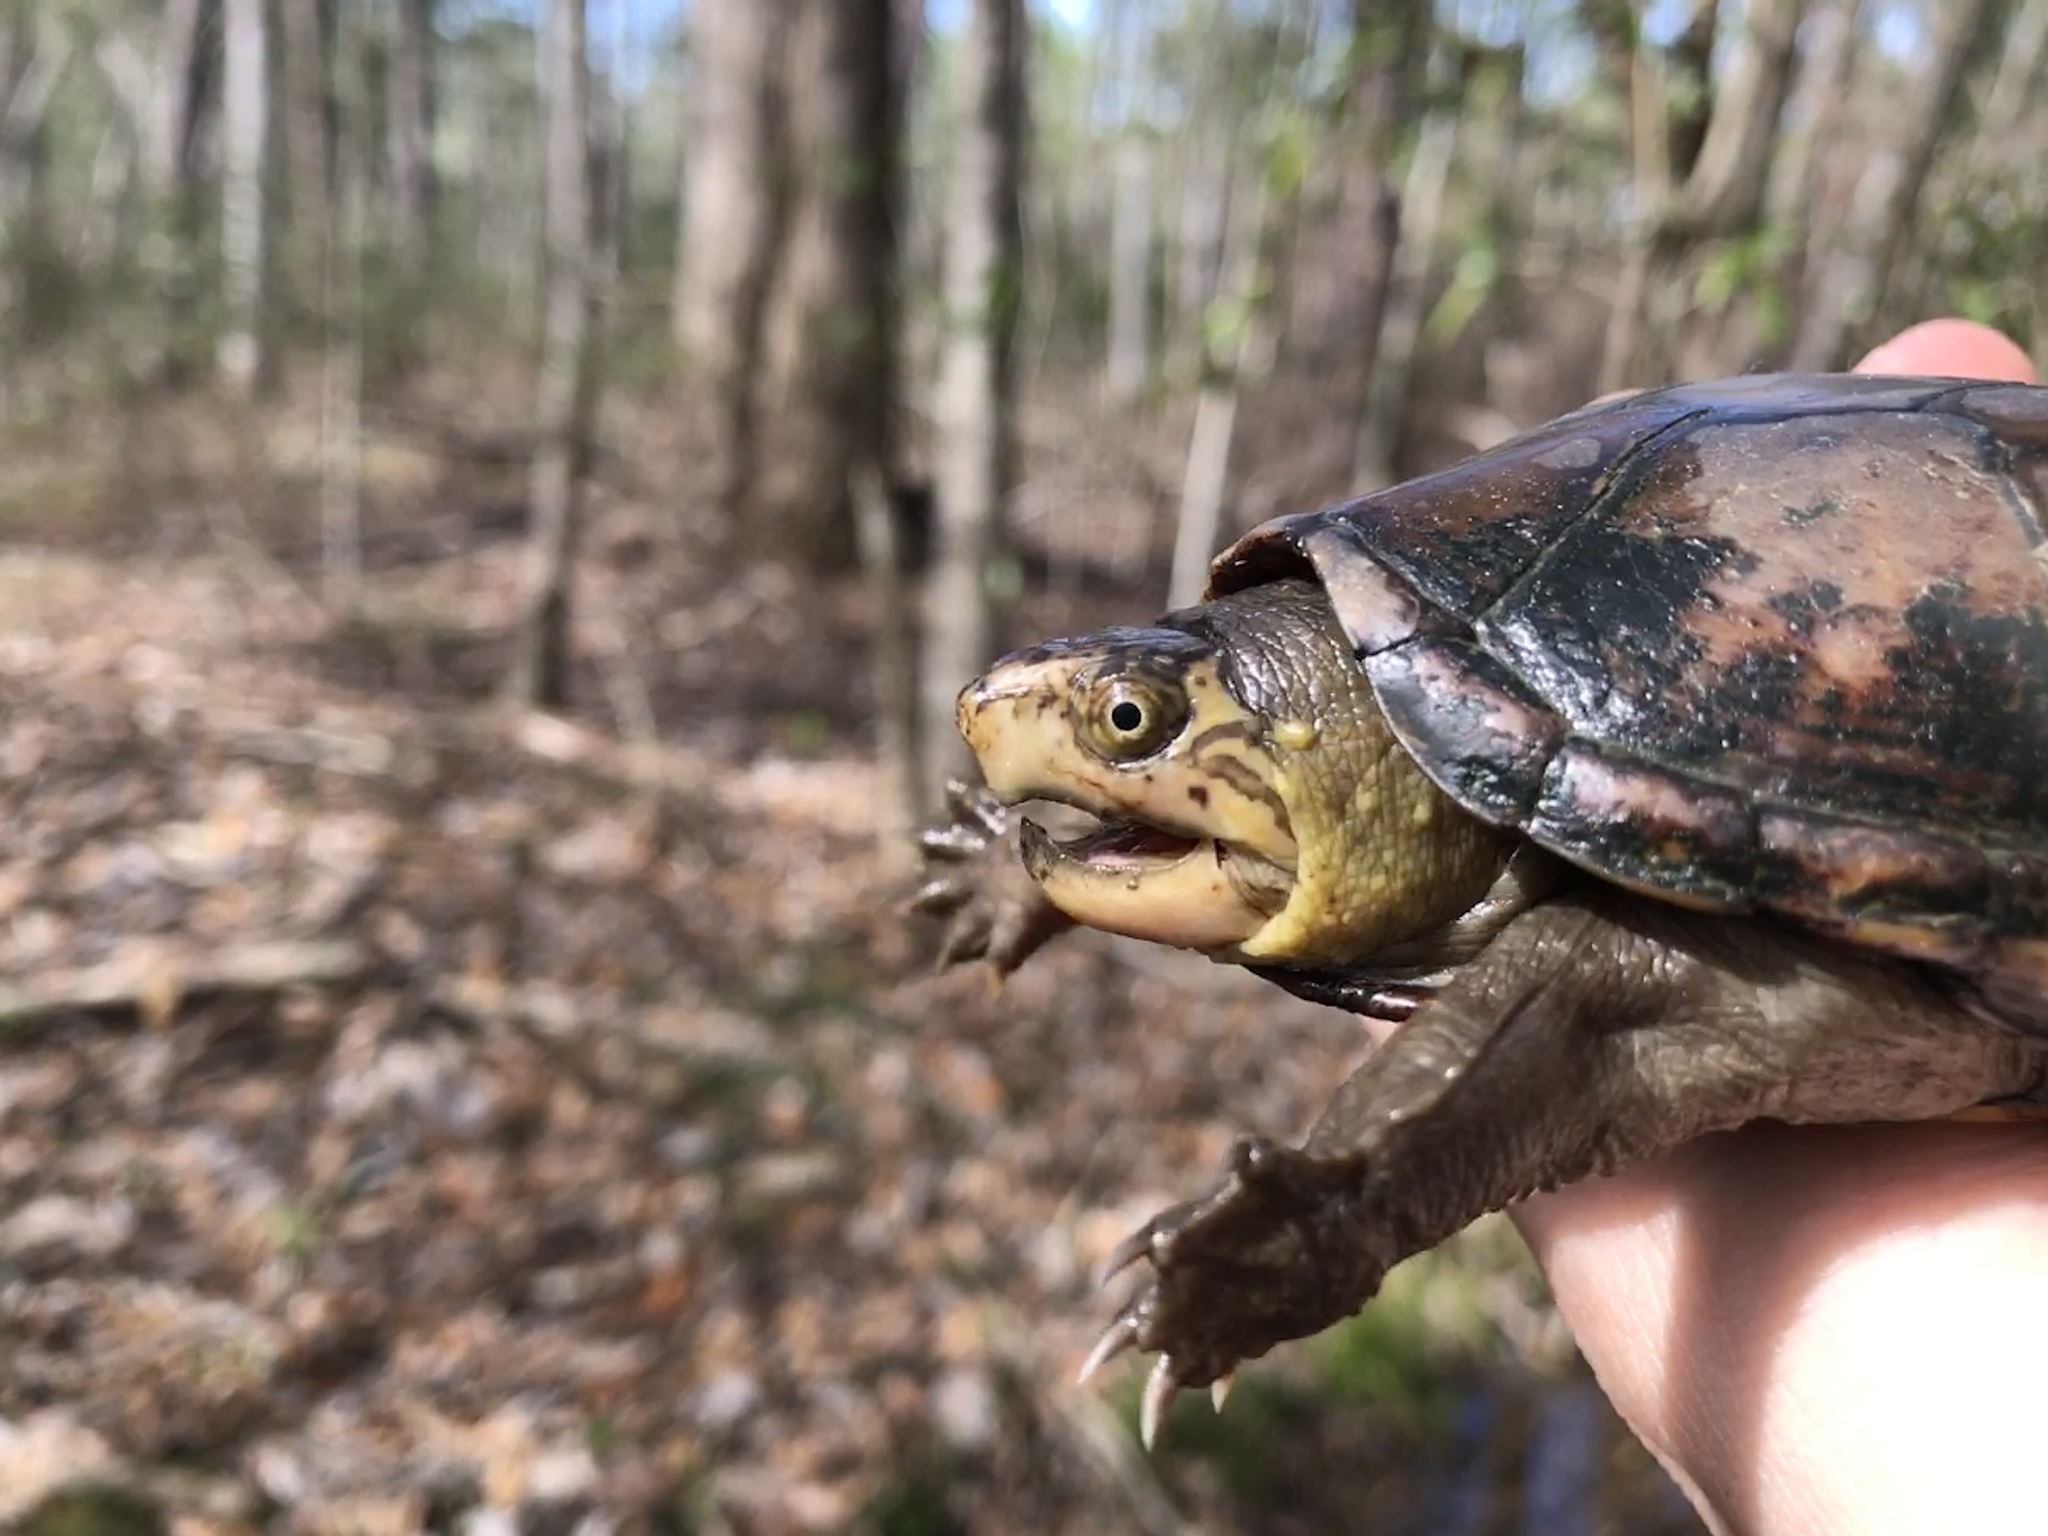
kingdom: Animalia
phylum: Chordata
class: Testudines
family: Kinosternidae
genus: Kinosternon
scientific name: Kinosternon subrubrum
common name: Eastern mud turtle
